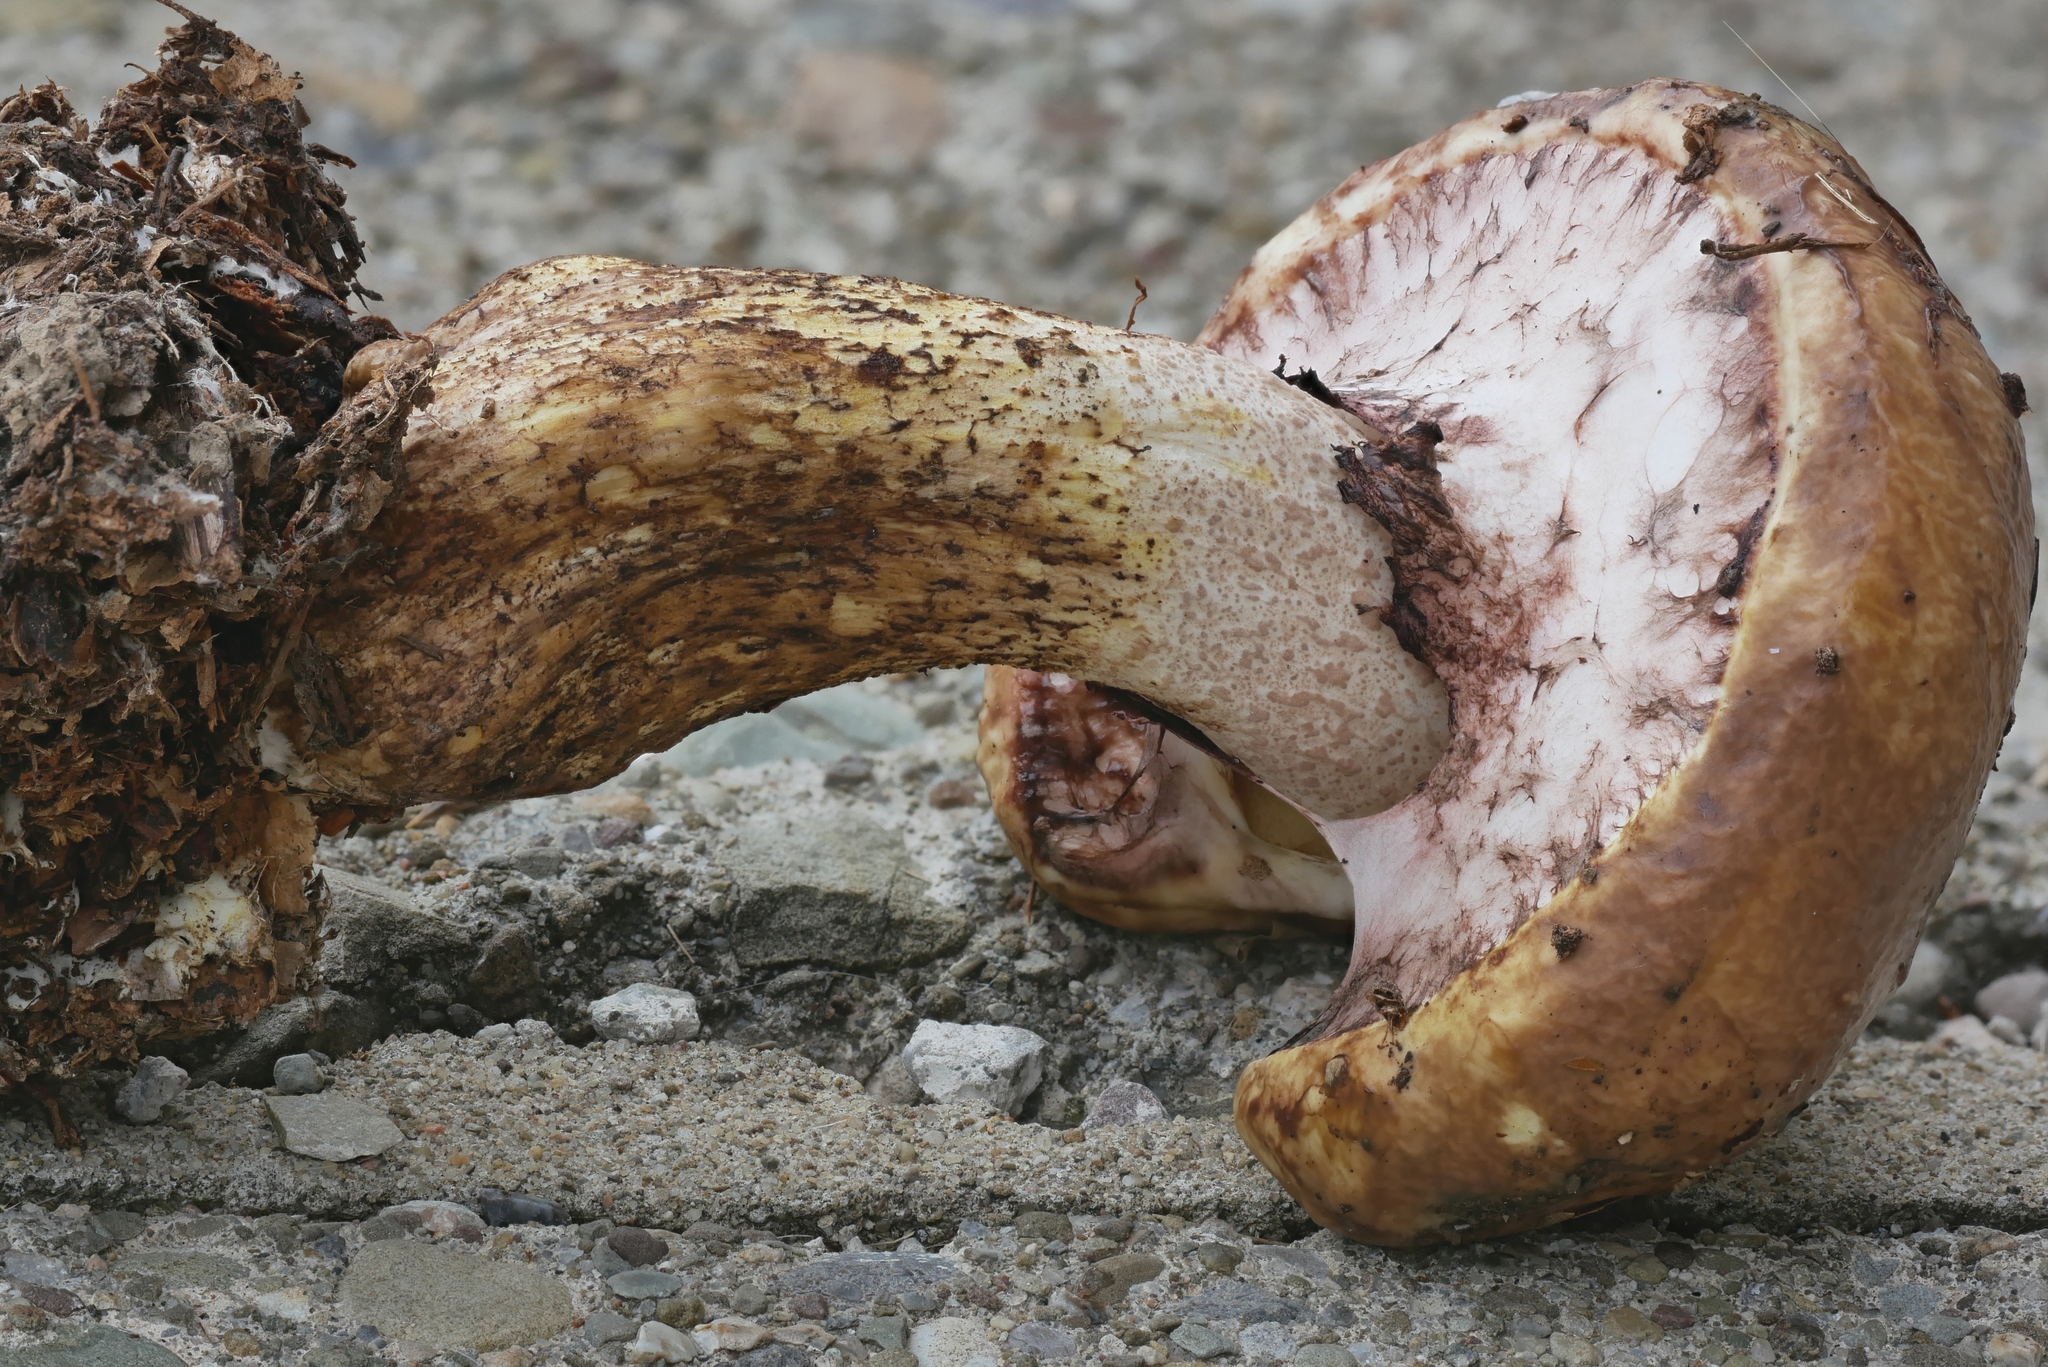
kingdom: Fungi
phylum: Basidiomycota
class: Agaricomycetes
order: Boletales
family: Suillaceae
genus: Suillus
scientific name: Suillus luteus
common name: Slippery jack
